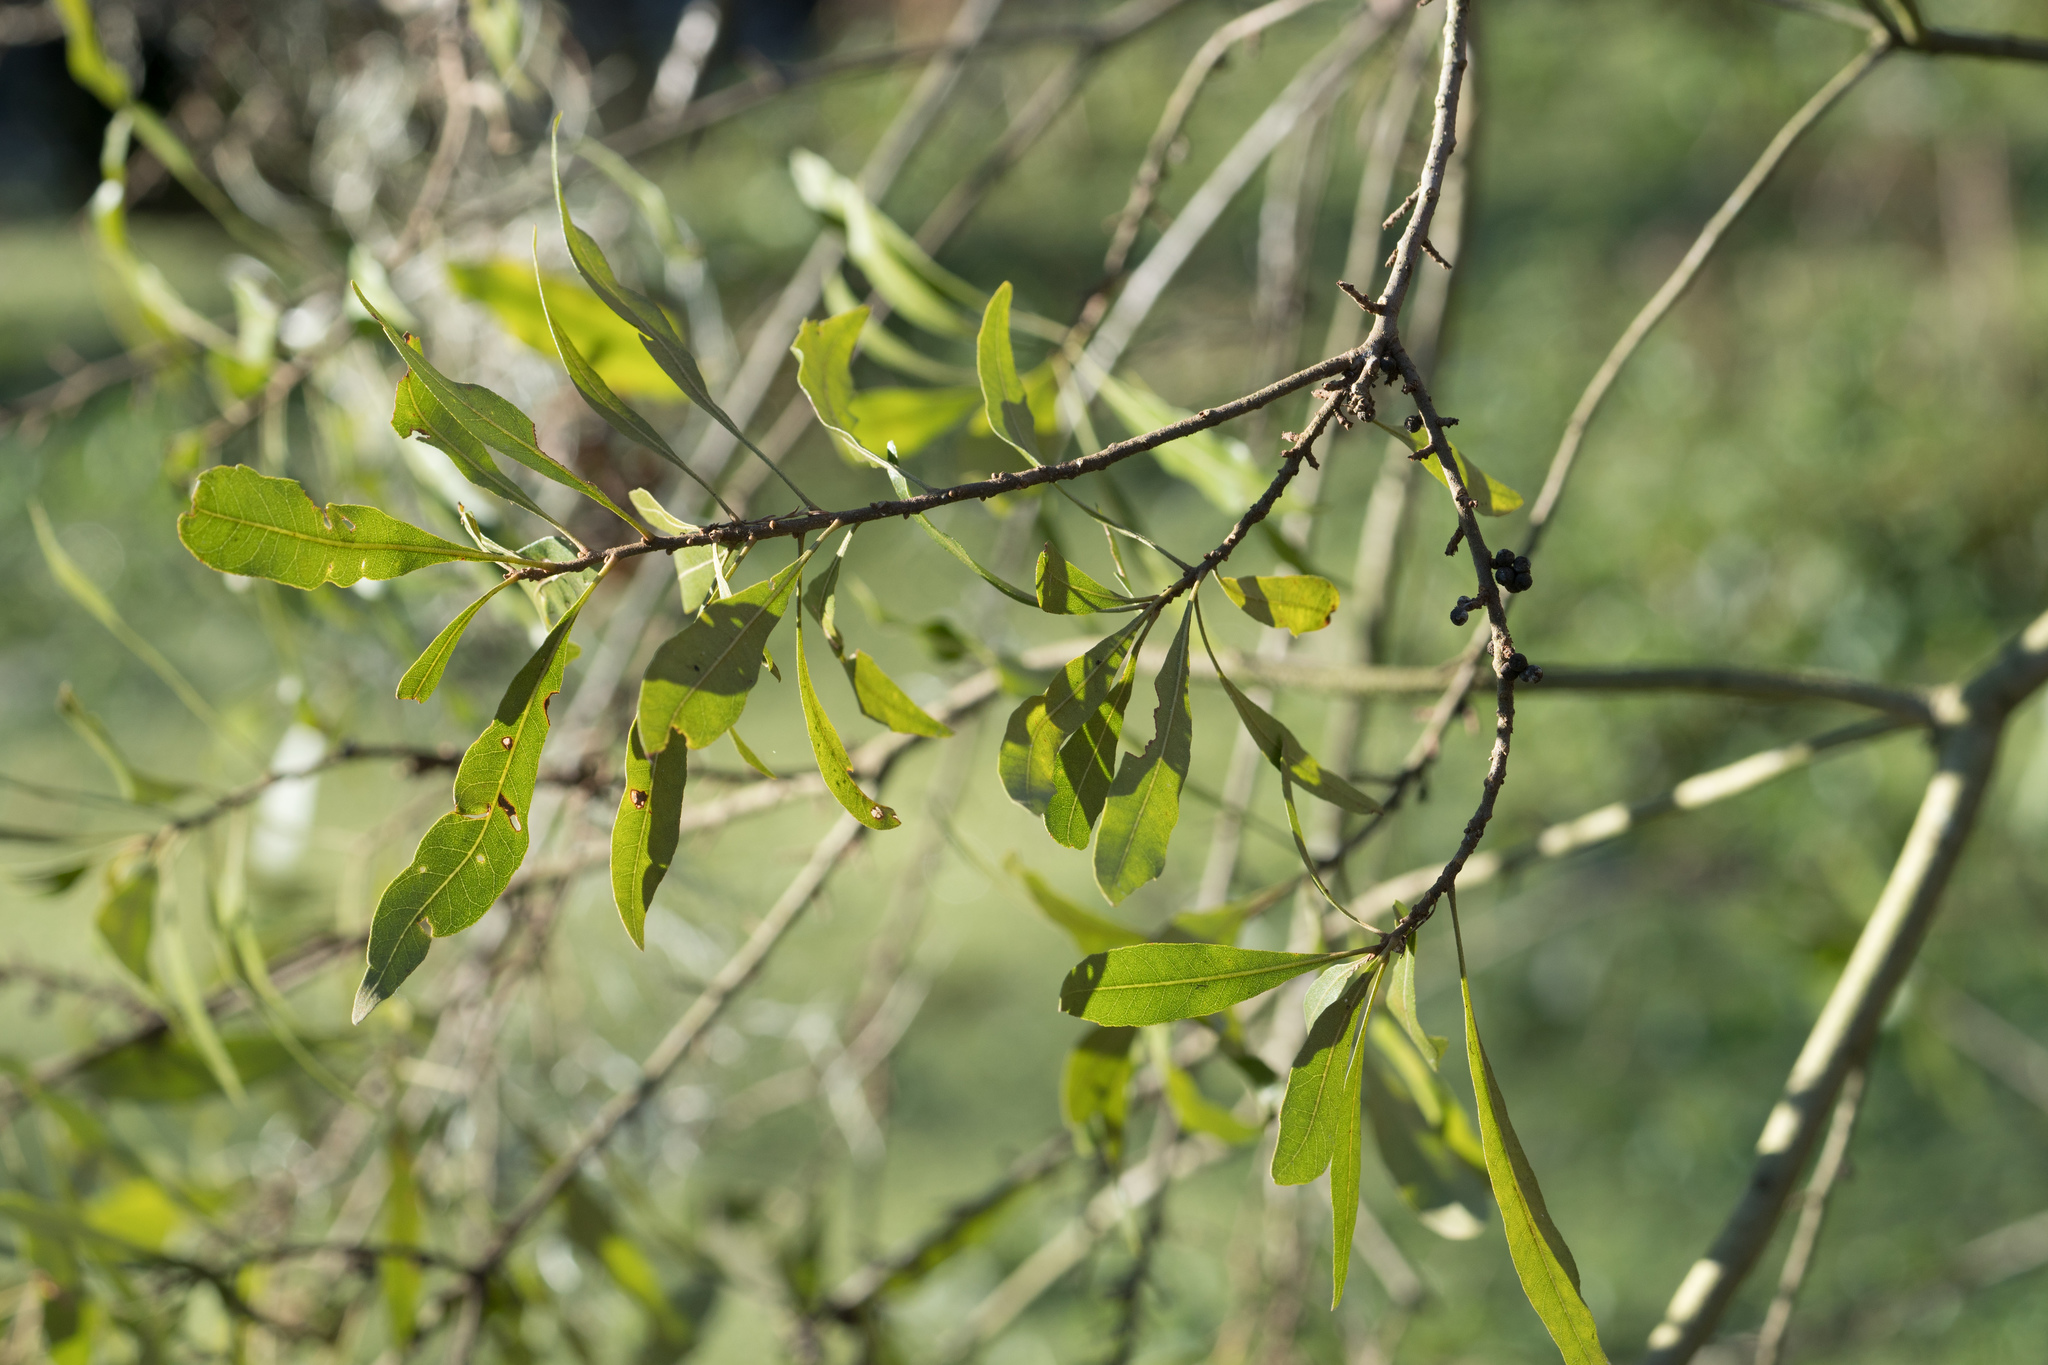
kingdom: Plantae
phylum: Tracheophyta
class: Magnoliopsida
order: Fagales
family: Myricaceae
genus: Morella
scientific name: Morella cerifera
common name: Wax myrtle
